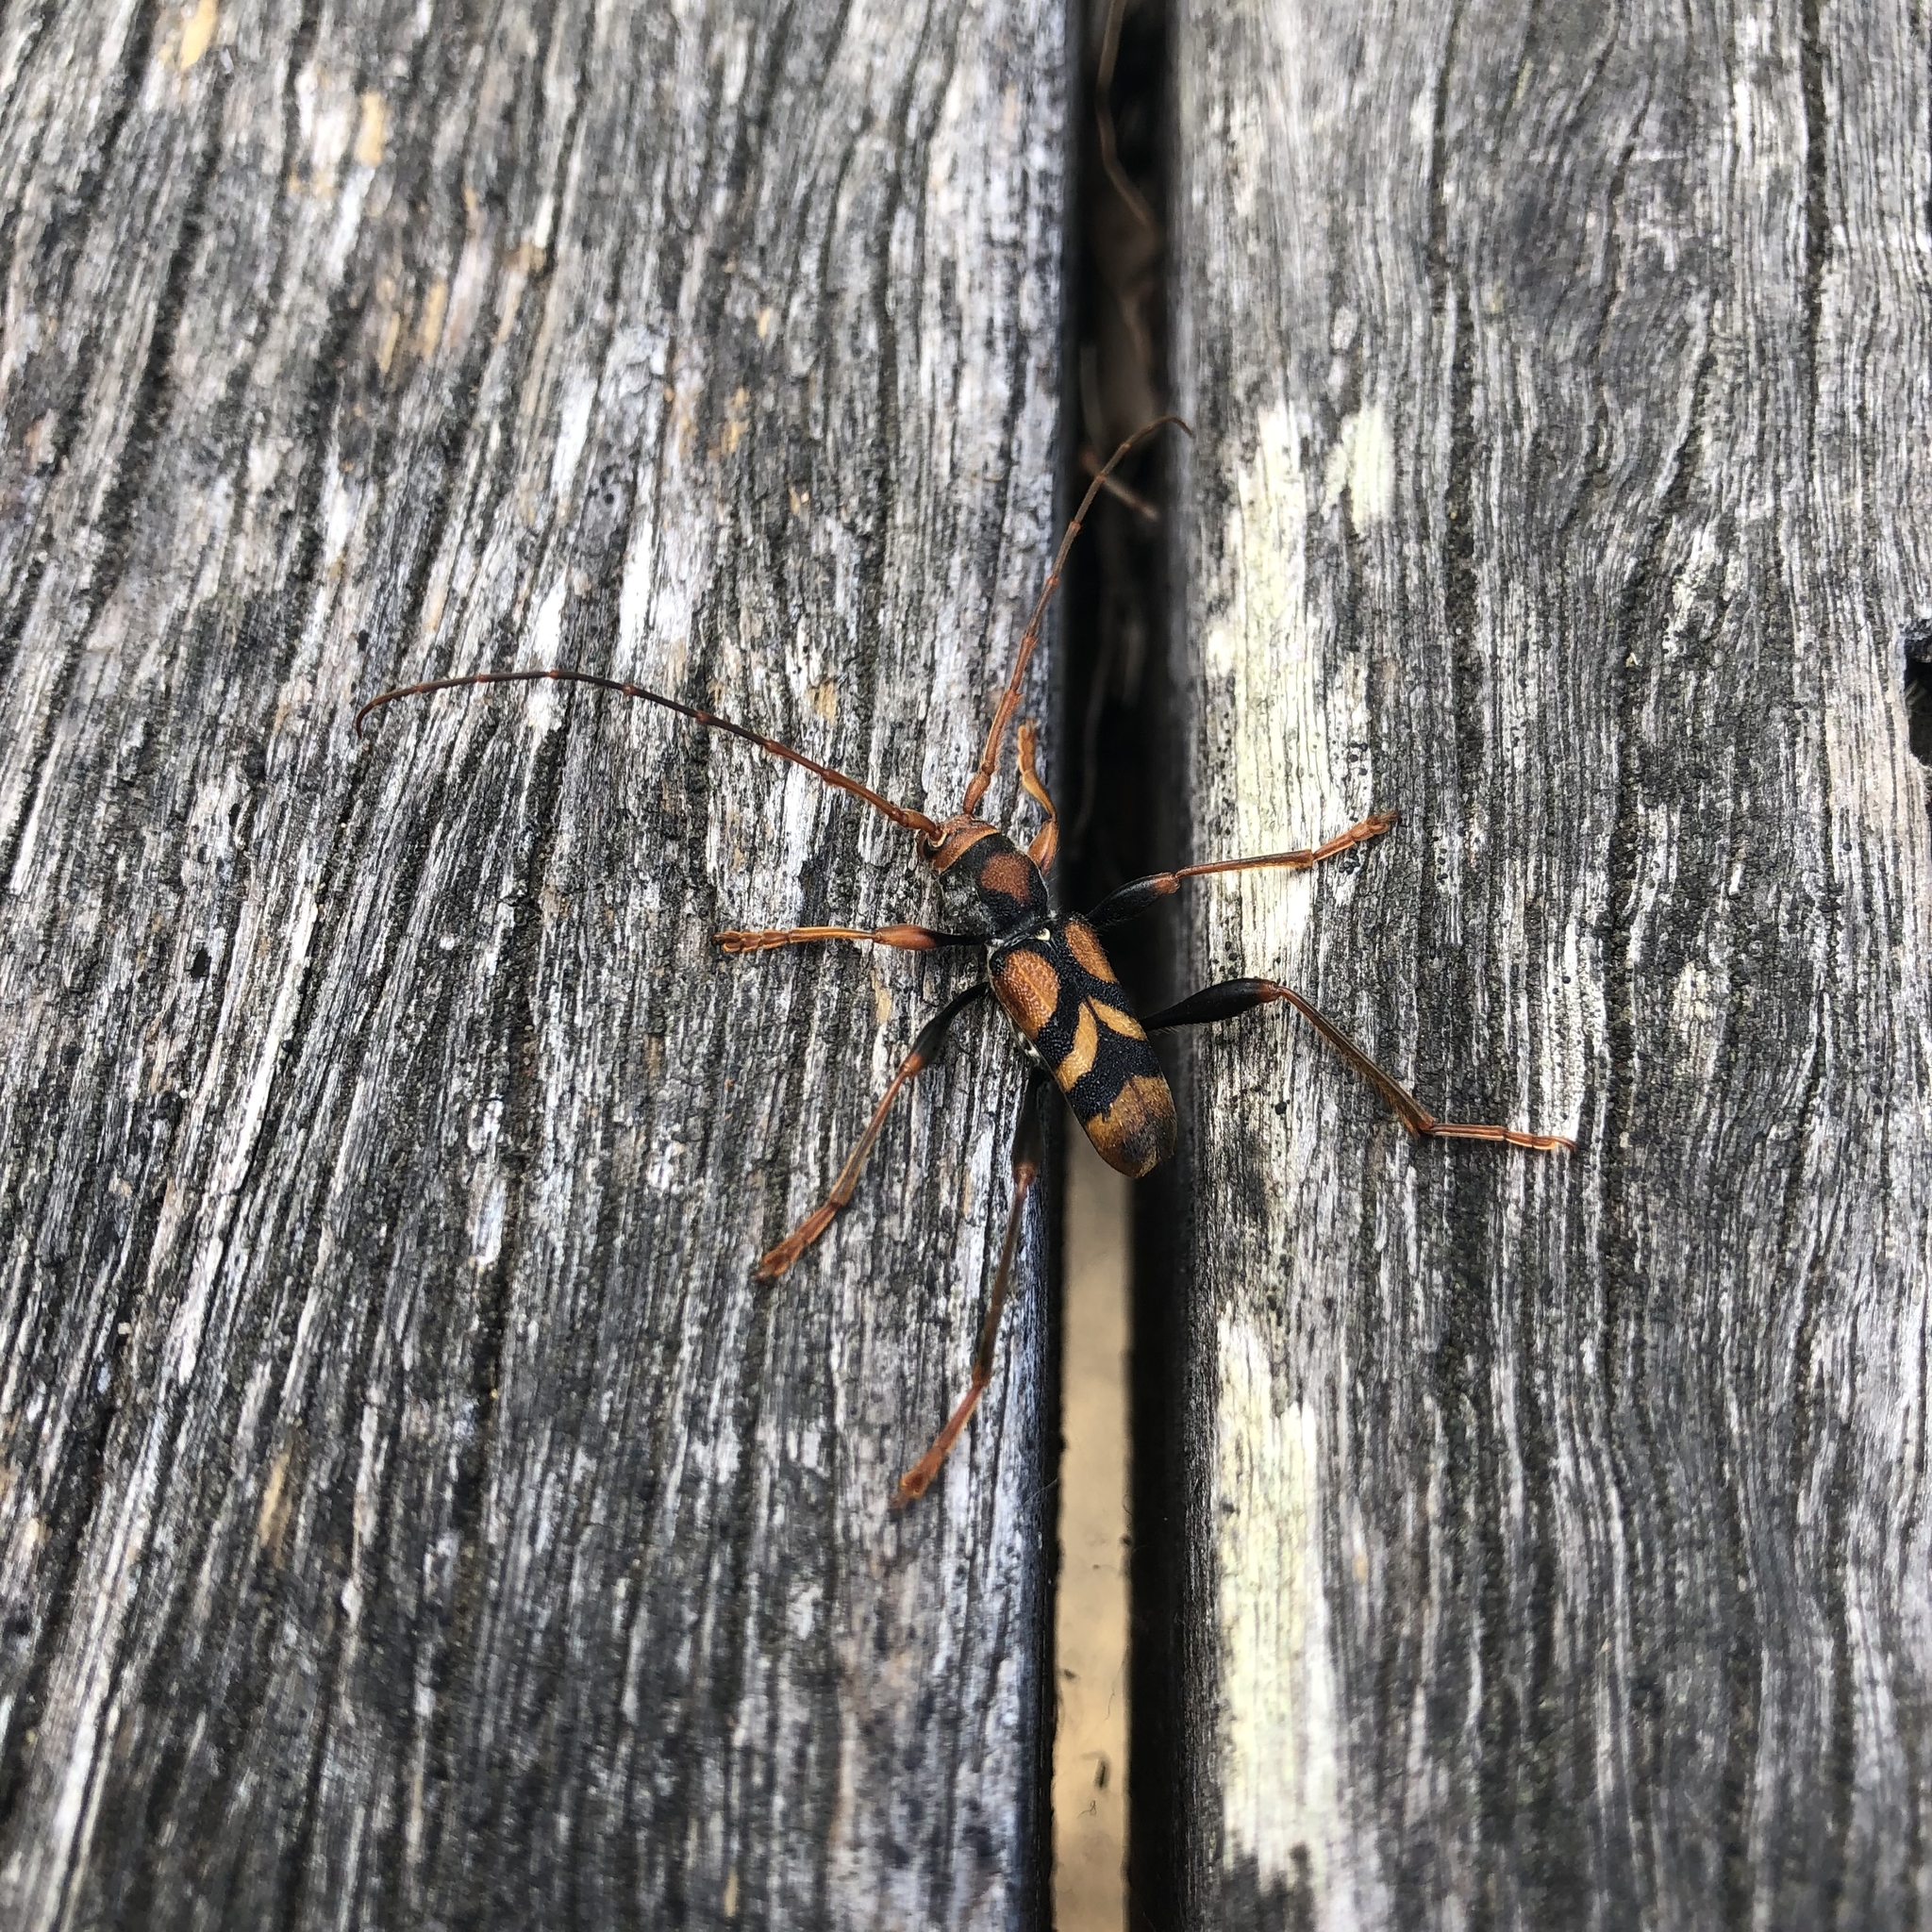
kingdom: Animalia
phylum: Arthropoda
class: Insecta
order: Coleoptera
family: Cerambycidae
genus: Aridaeus
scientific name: Aridaeus thoracicus
